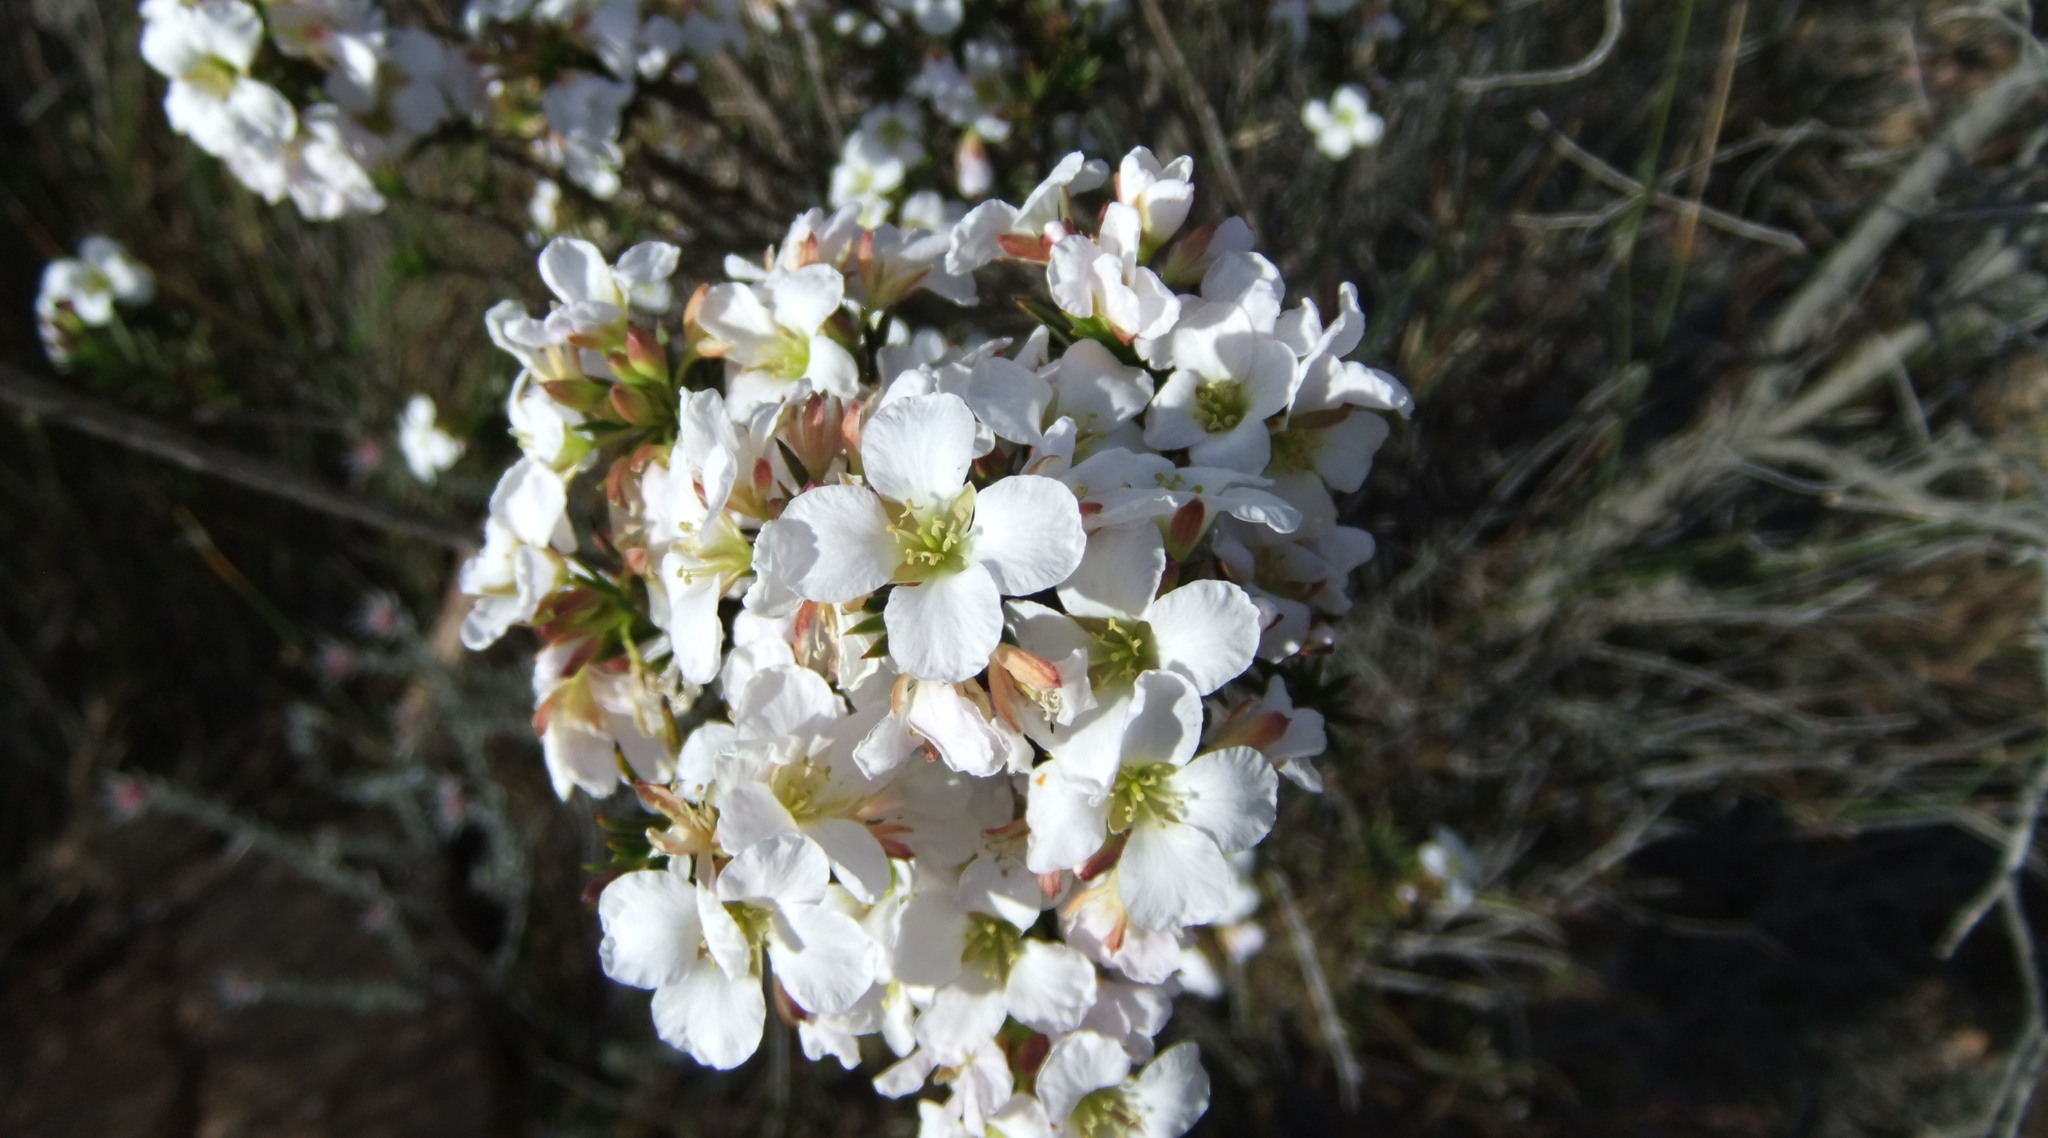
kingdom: Plantae
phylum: Tracheophyta
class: Magnoliopsida
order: Brassicales
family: Brassicaceae
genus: Heliophila
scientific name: Heliophila glauca
